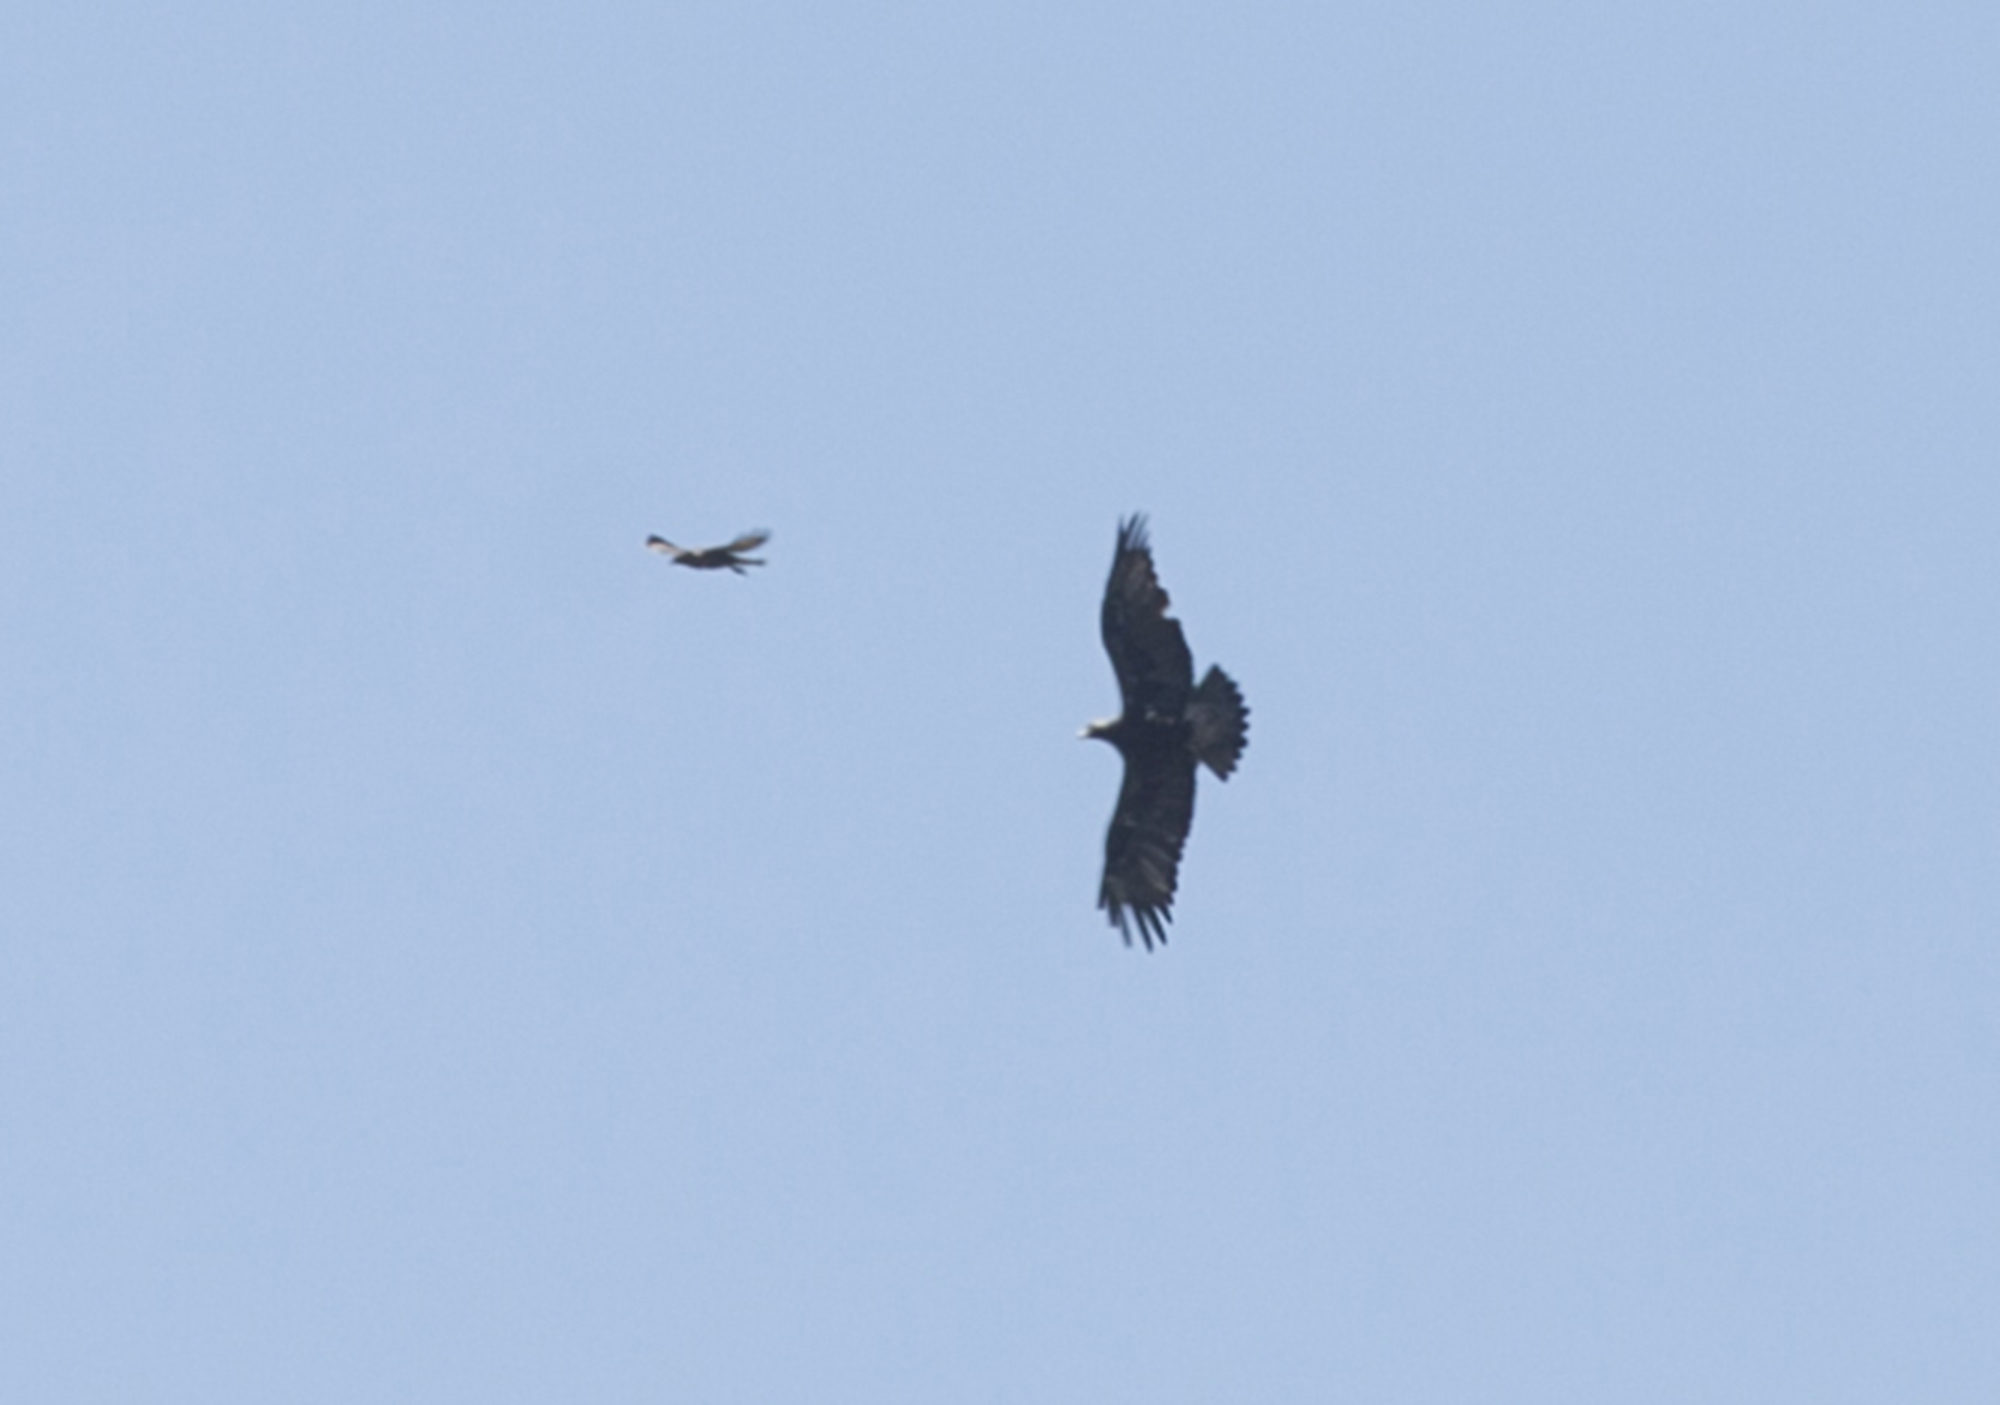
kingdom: Animalia
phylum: Chordata
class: Aves
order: Accipitriformes
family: Accipitridae
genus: Buteo
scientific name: Buteo buteo
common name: Common buzzard
